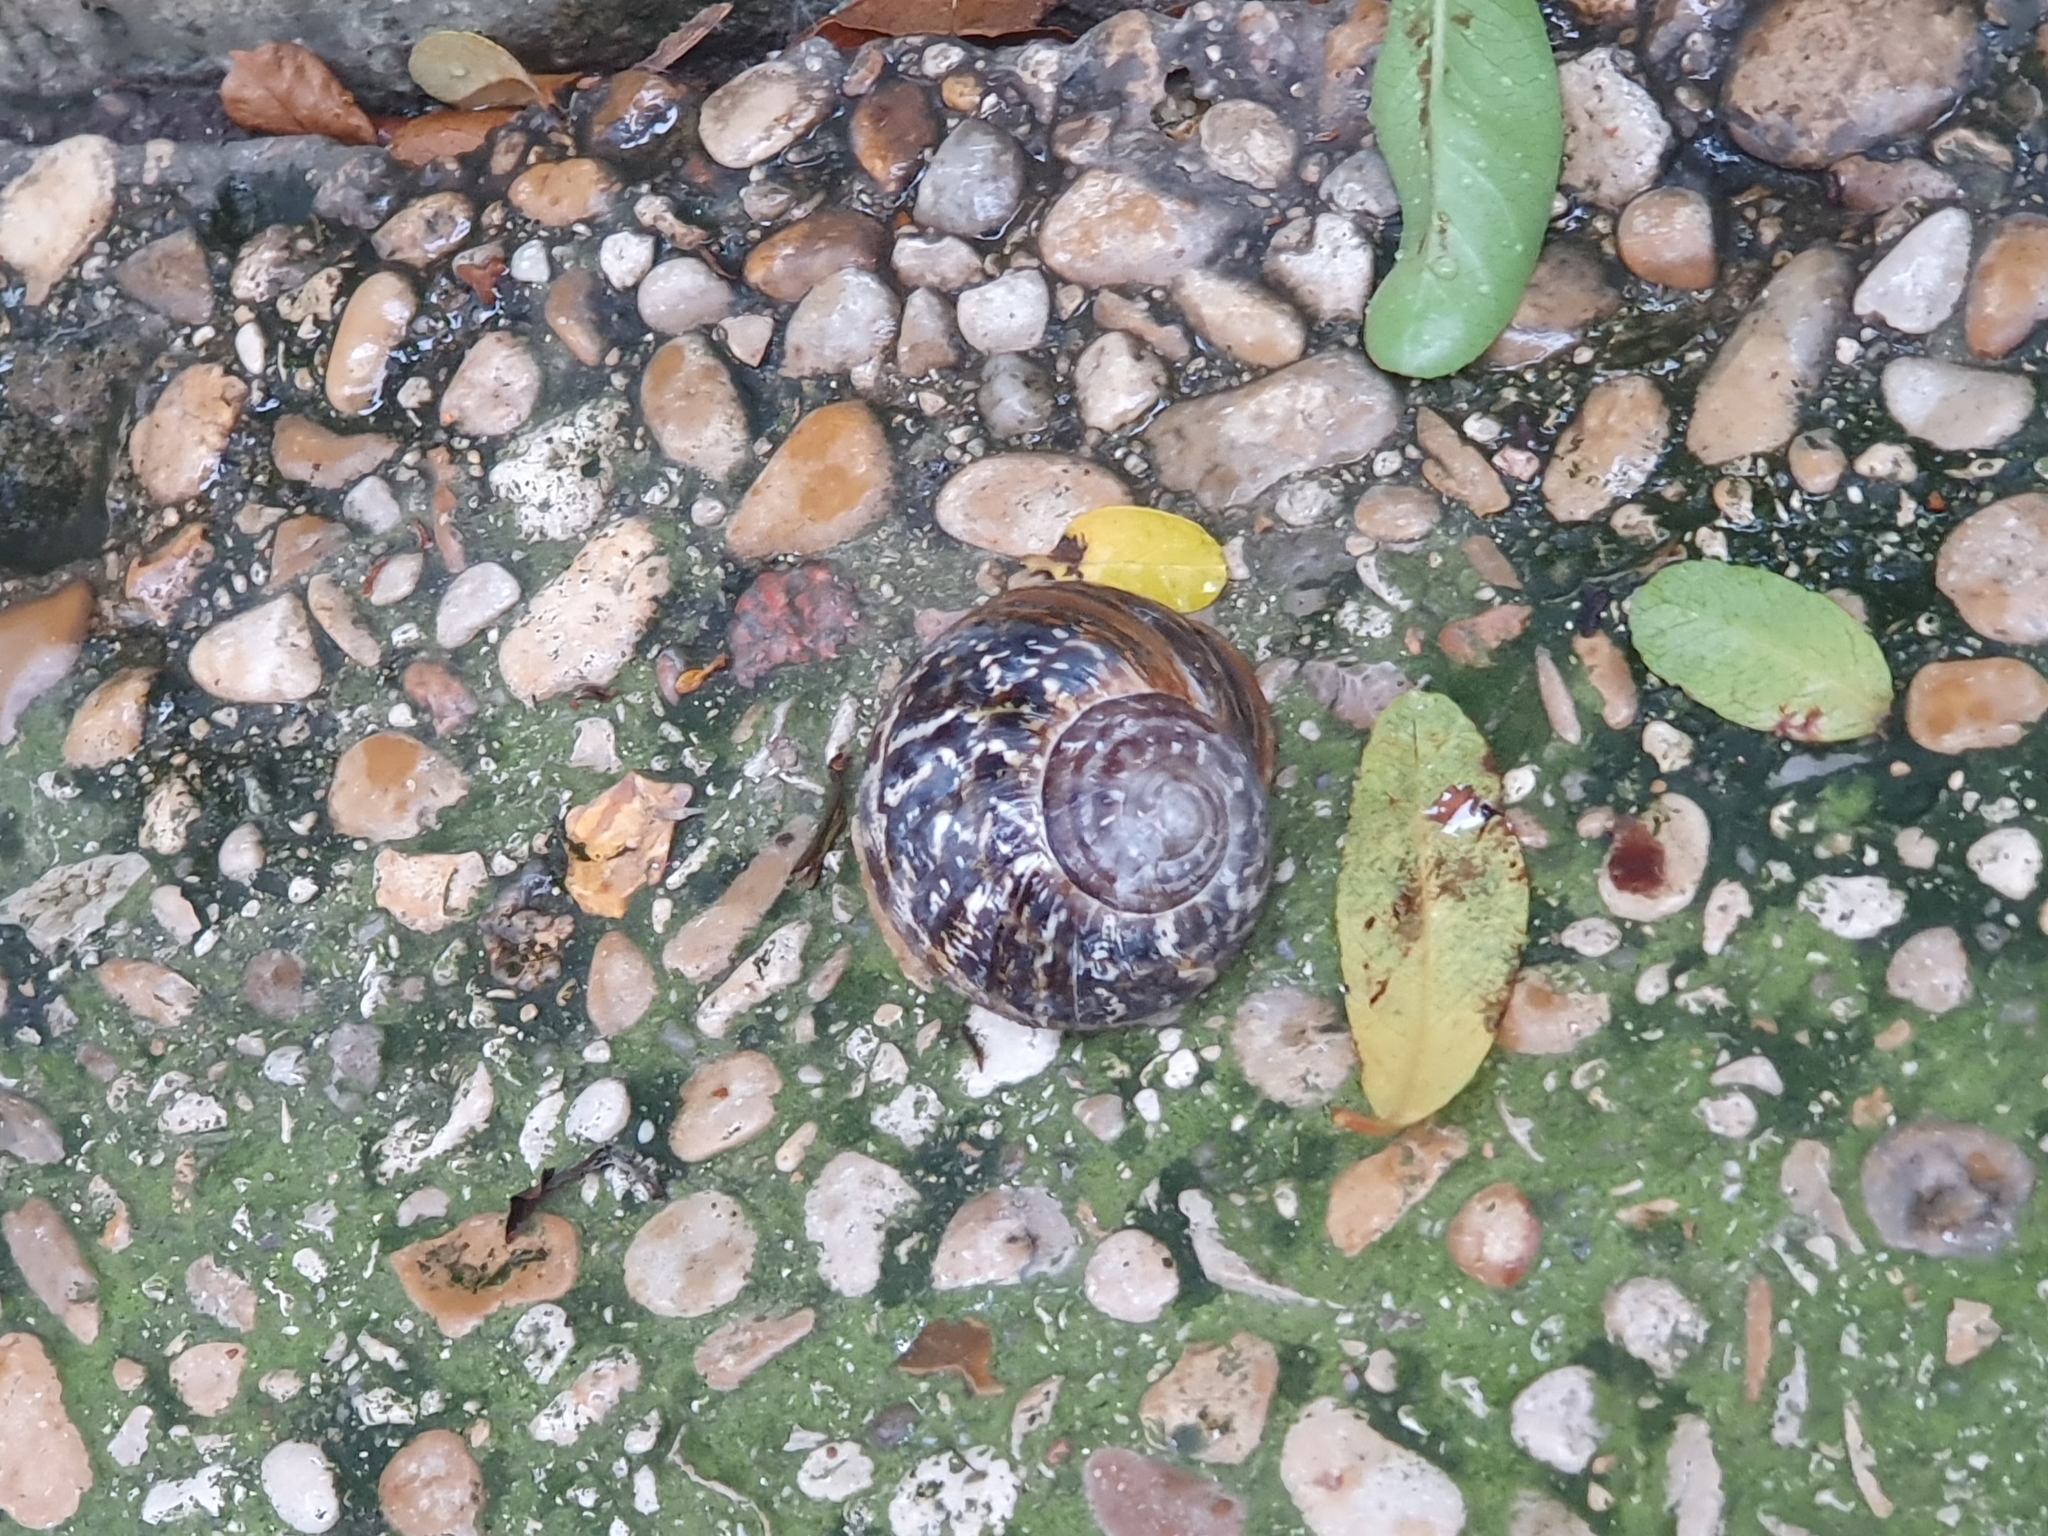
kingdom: Animalia
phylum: Mollusca
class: Gastropoda
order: Stylommatophora
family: Helicidae
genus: Cornu
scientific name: Cornu aspersum
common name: Brown garden snail
